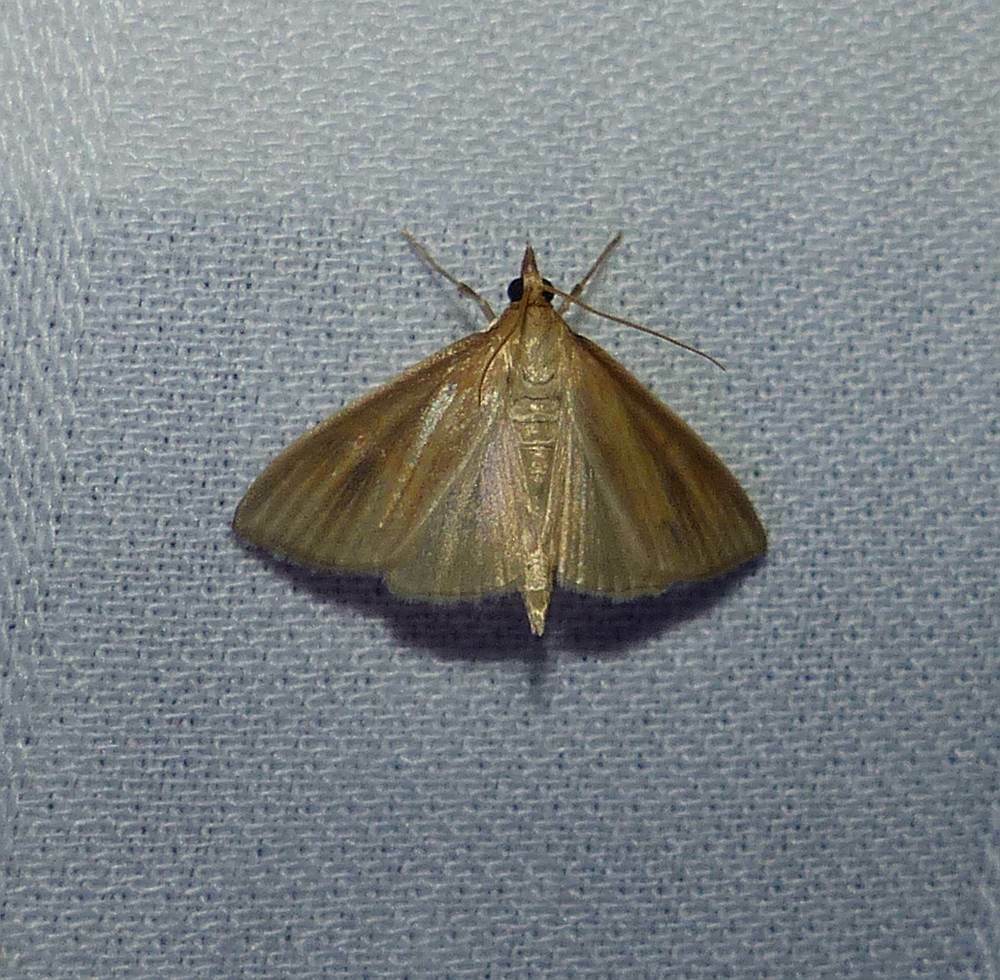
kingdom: Animalia
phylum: Arthropoda
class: Insecta
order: Lepidoptera
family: Crambidae
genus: Nascia
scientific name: Nascia acutellus
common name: Streaked orange moth
